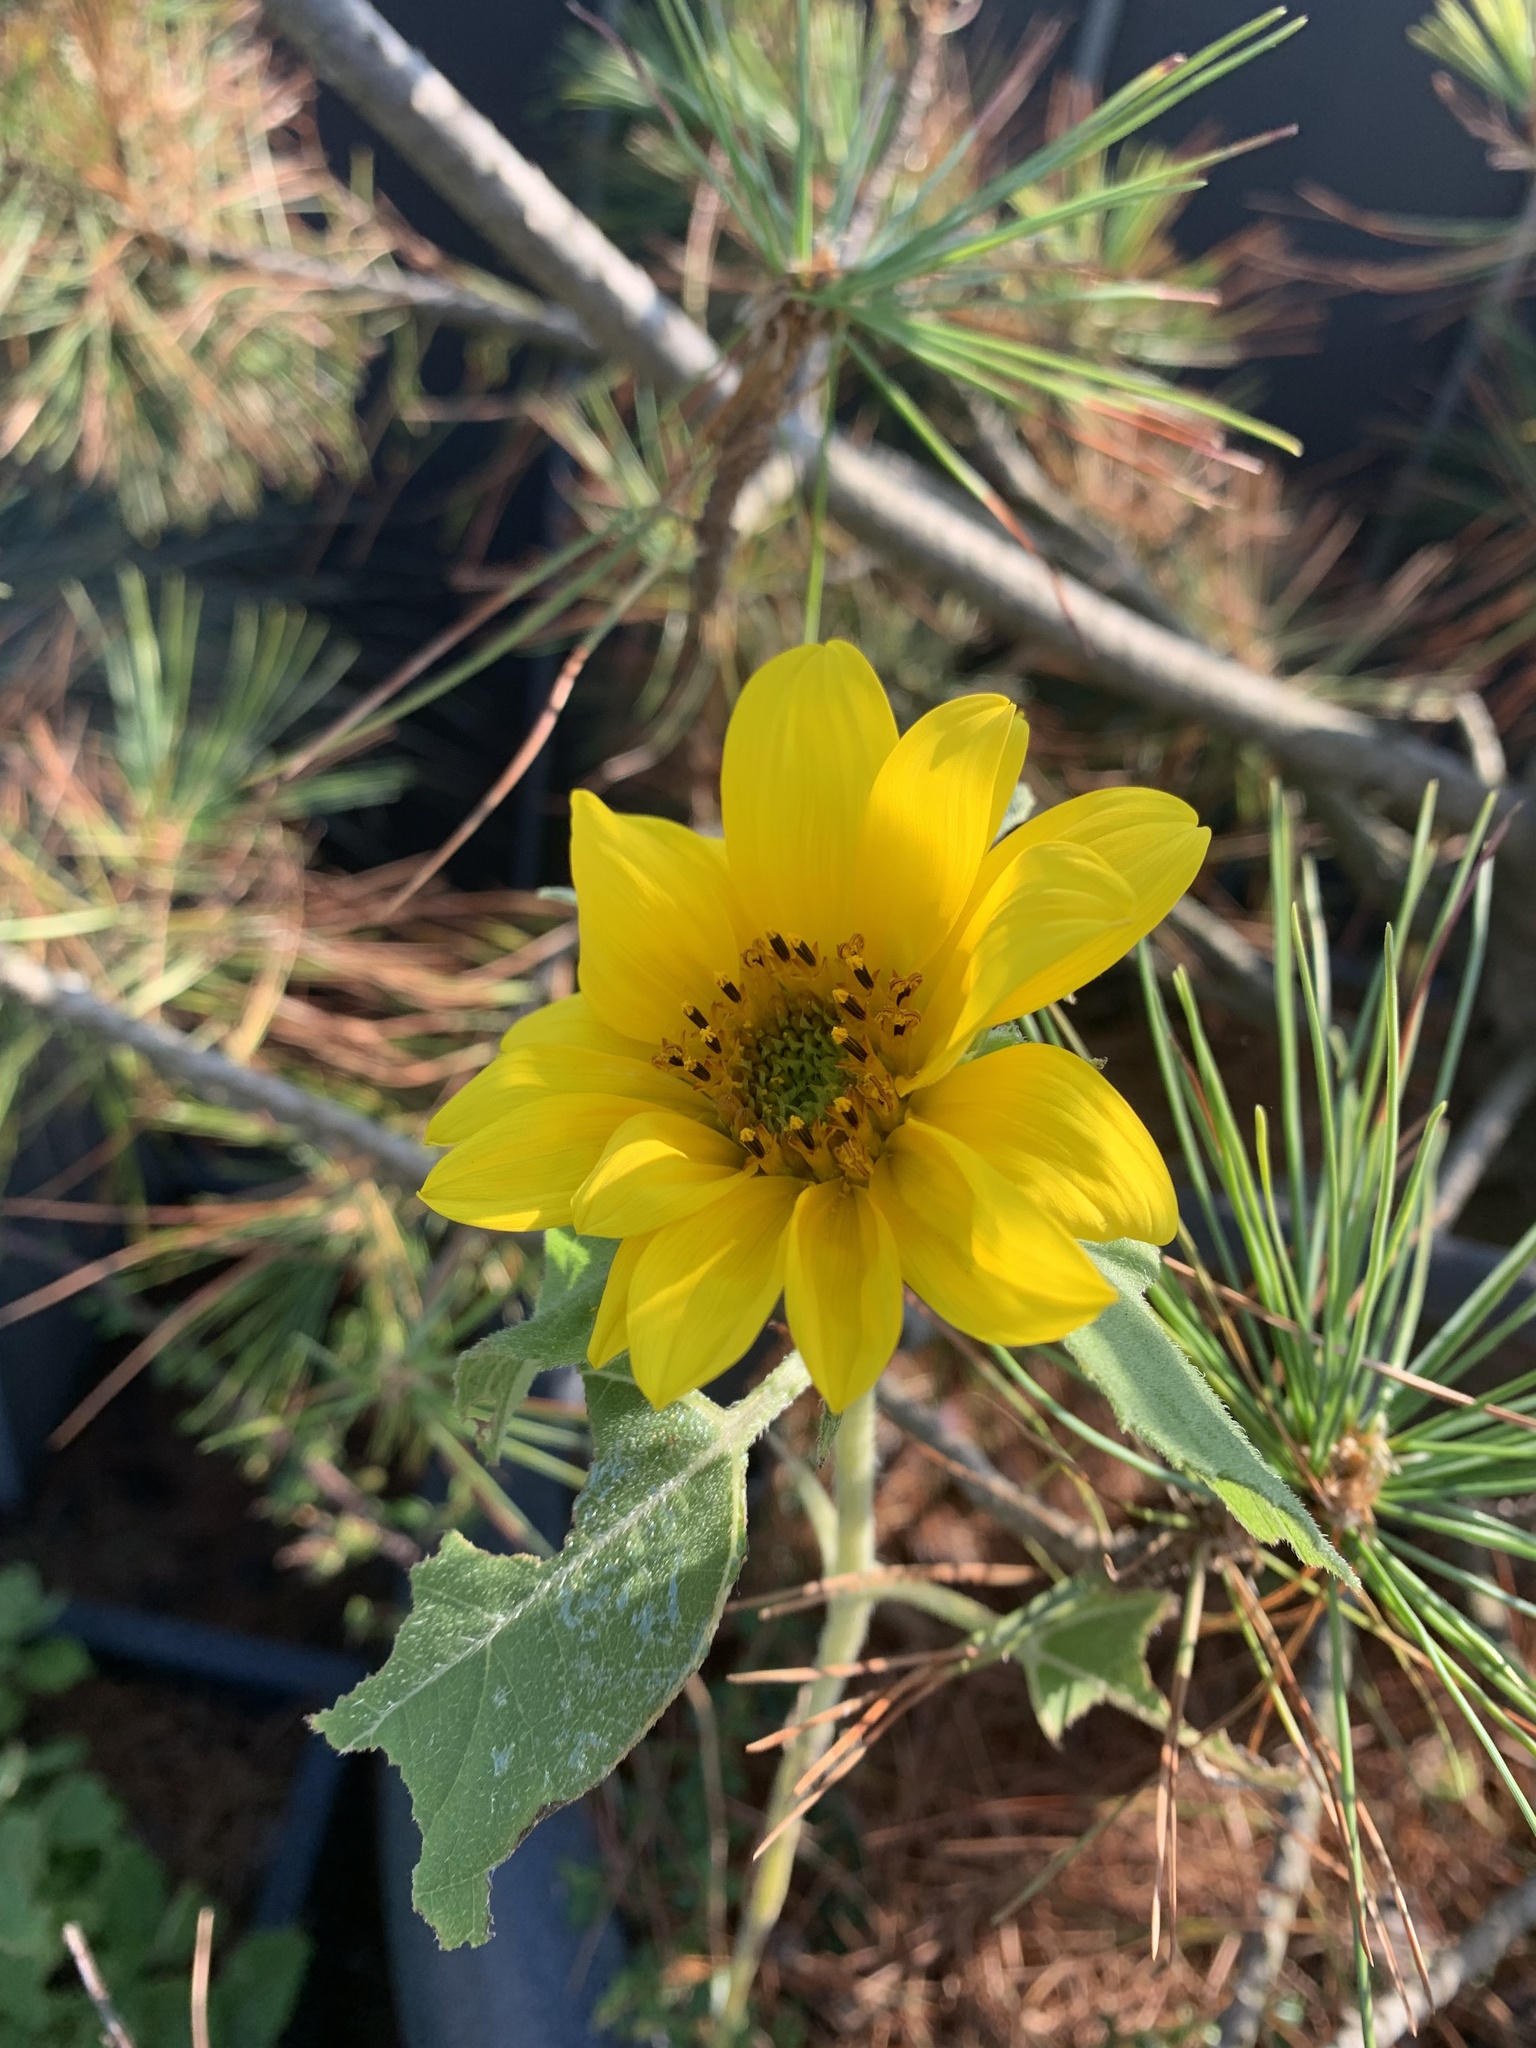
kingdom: Plantae
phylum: Tracheophyta
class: Magnoliopsida
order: Asterales
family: Asteraceae
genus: Helianthus
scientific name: Helianthus annuus
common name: Sunflower
